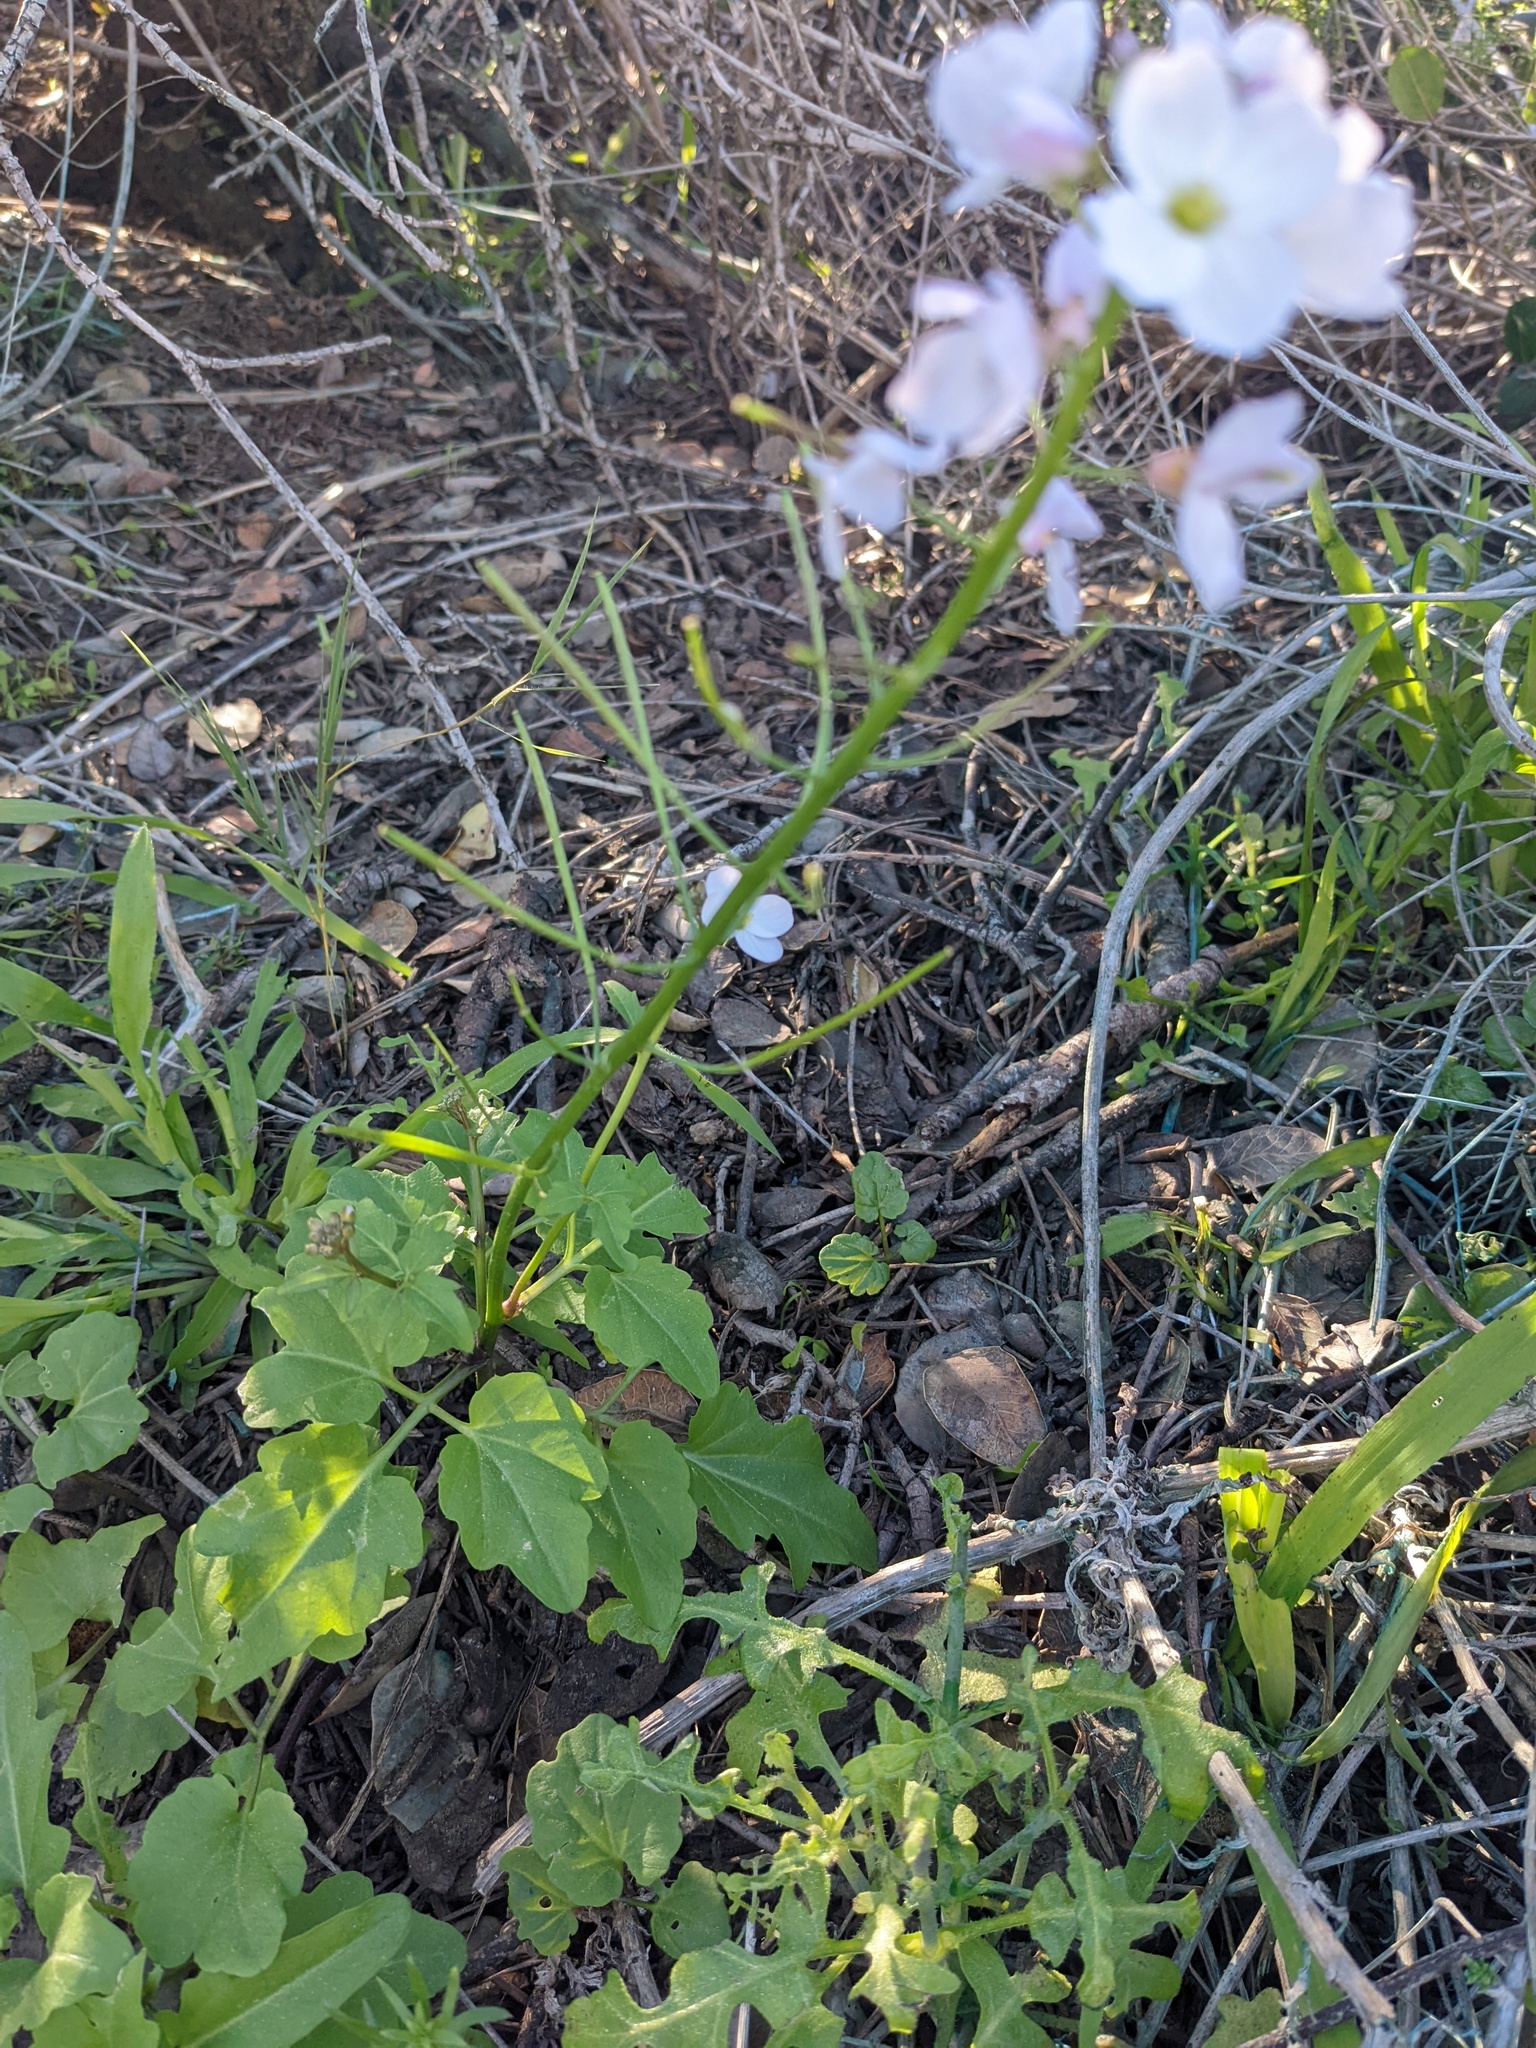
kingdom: Plantae
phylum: Tracheophyta
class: Magnoliopsida
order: Brassicales
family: Brassicaceae
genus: Cardamine
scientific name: Cardamine californica
